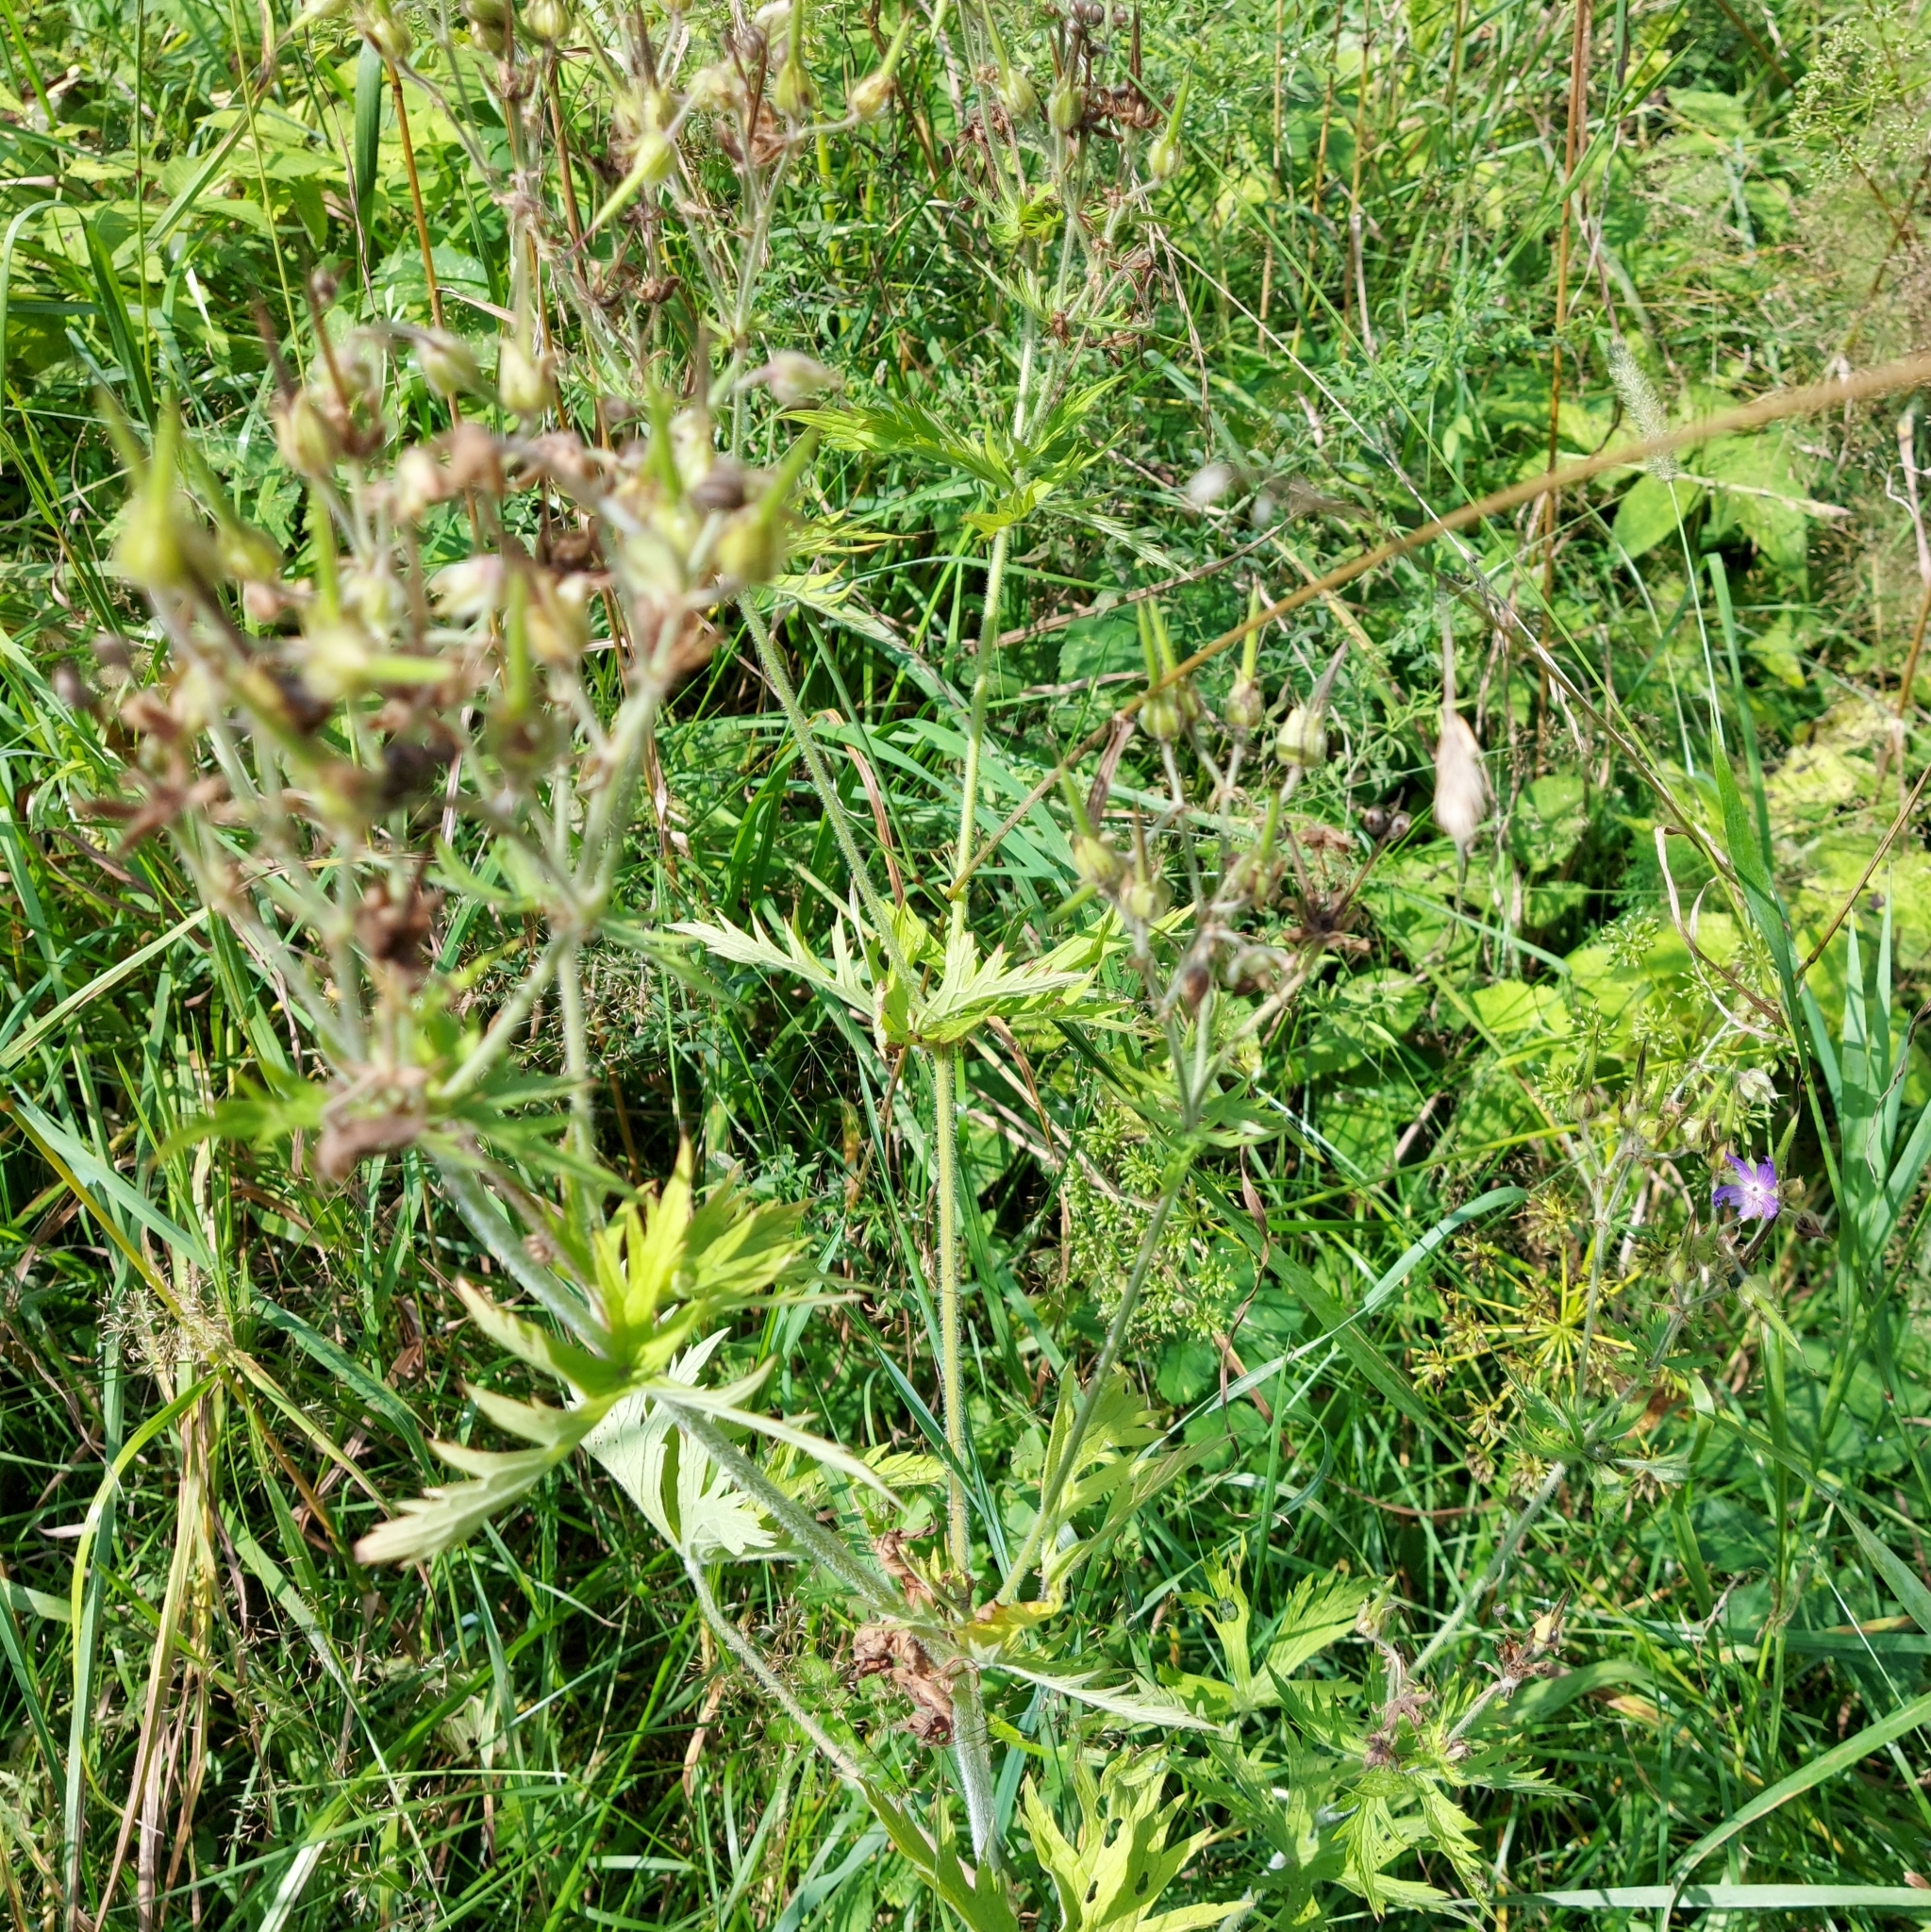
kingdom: Plantae
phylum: Tracheophyta
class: Magnoliopsida
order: Geraniales
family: Geraniaceae
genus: Geranium
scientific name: Geranium pratense
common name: Meadow crane's-bill
